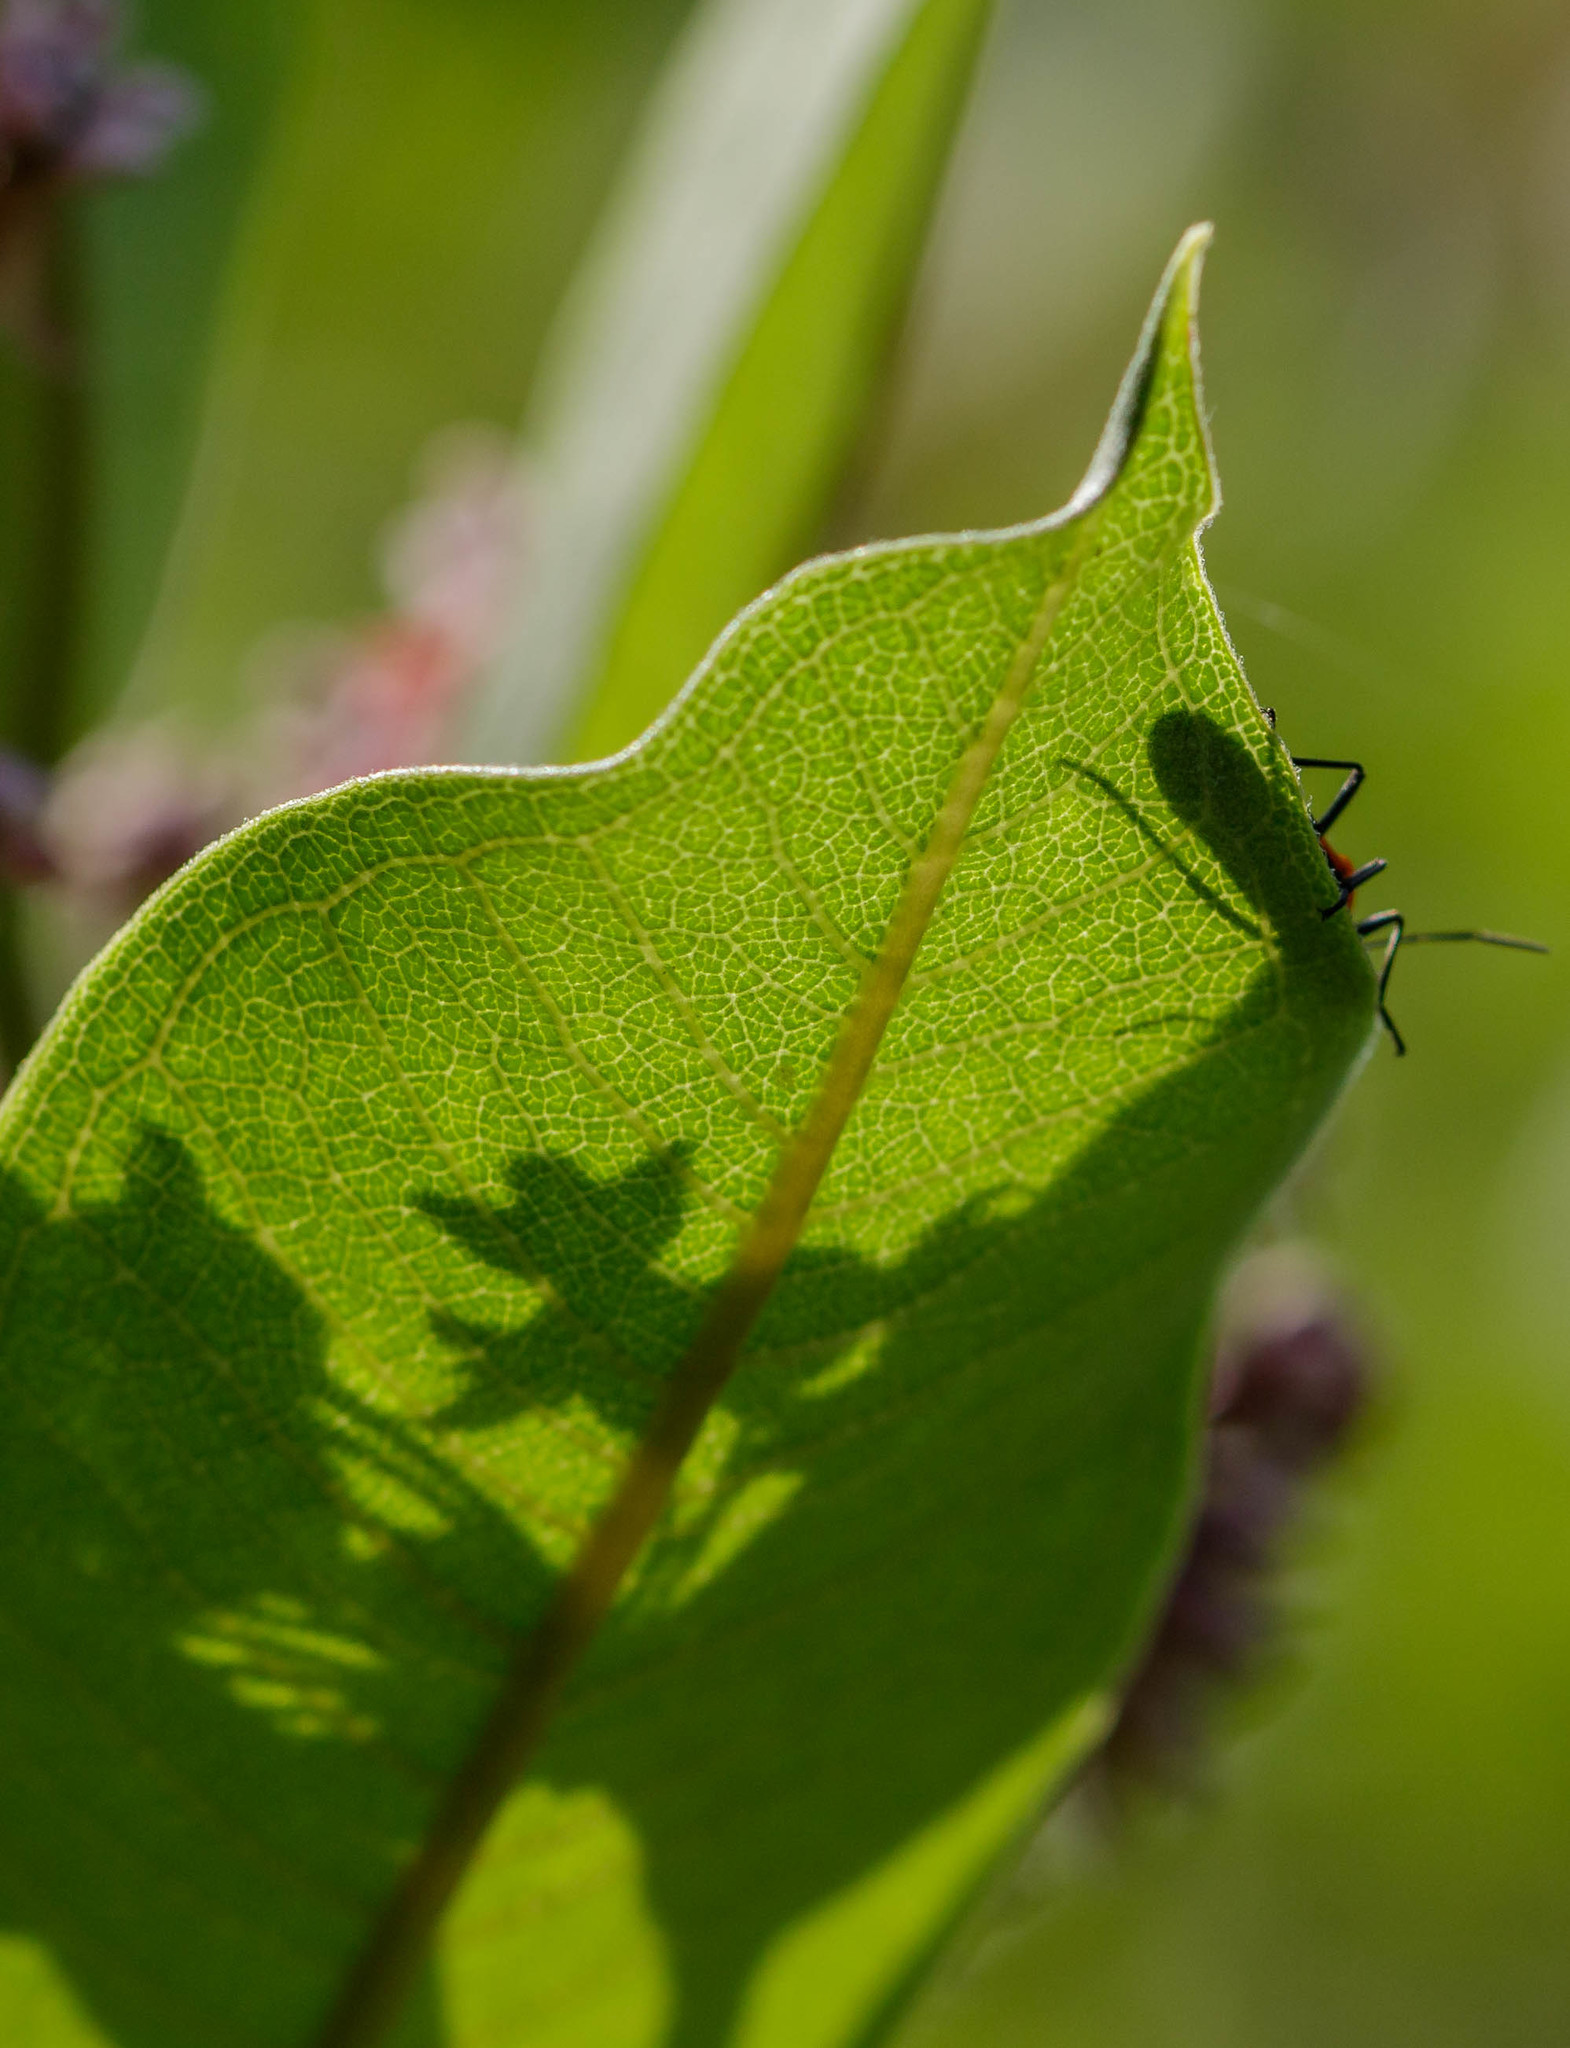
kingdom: Animalia
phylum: Arthropoda
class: Insecta
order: Hemiptera
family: Lygaeidae
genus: Oncopeltus
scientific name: Oncopeltus fasciatus
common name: Large milkweed bug
